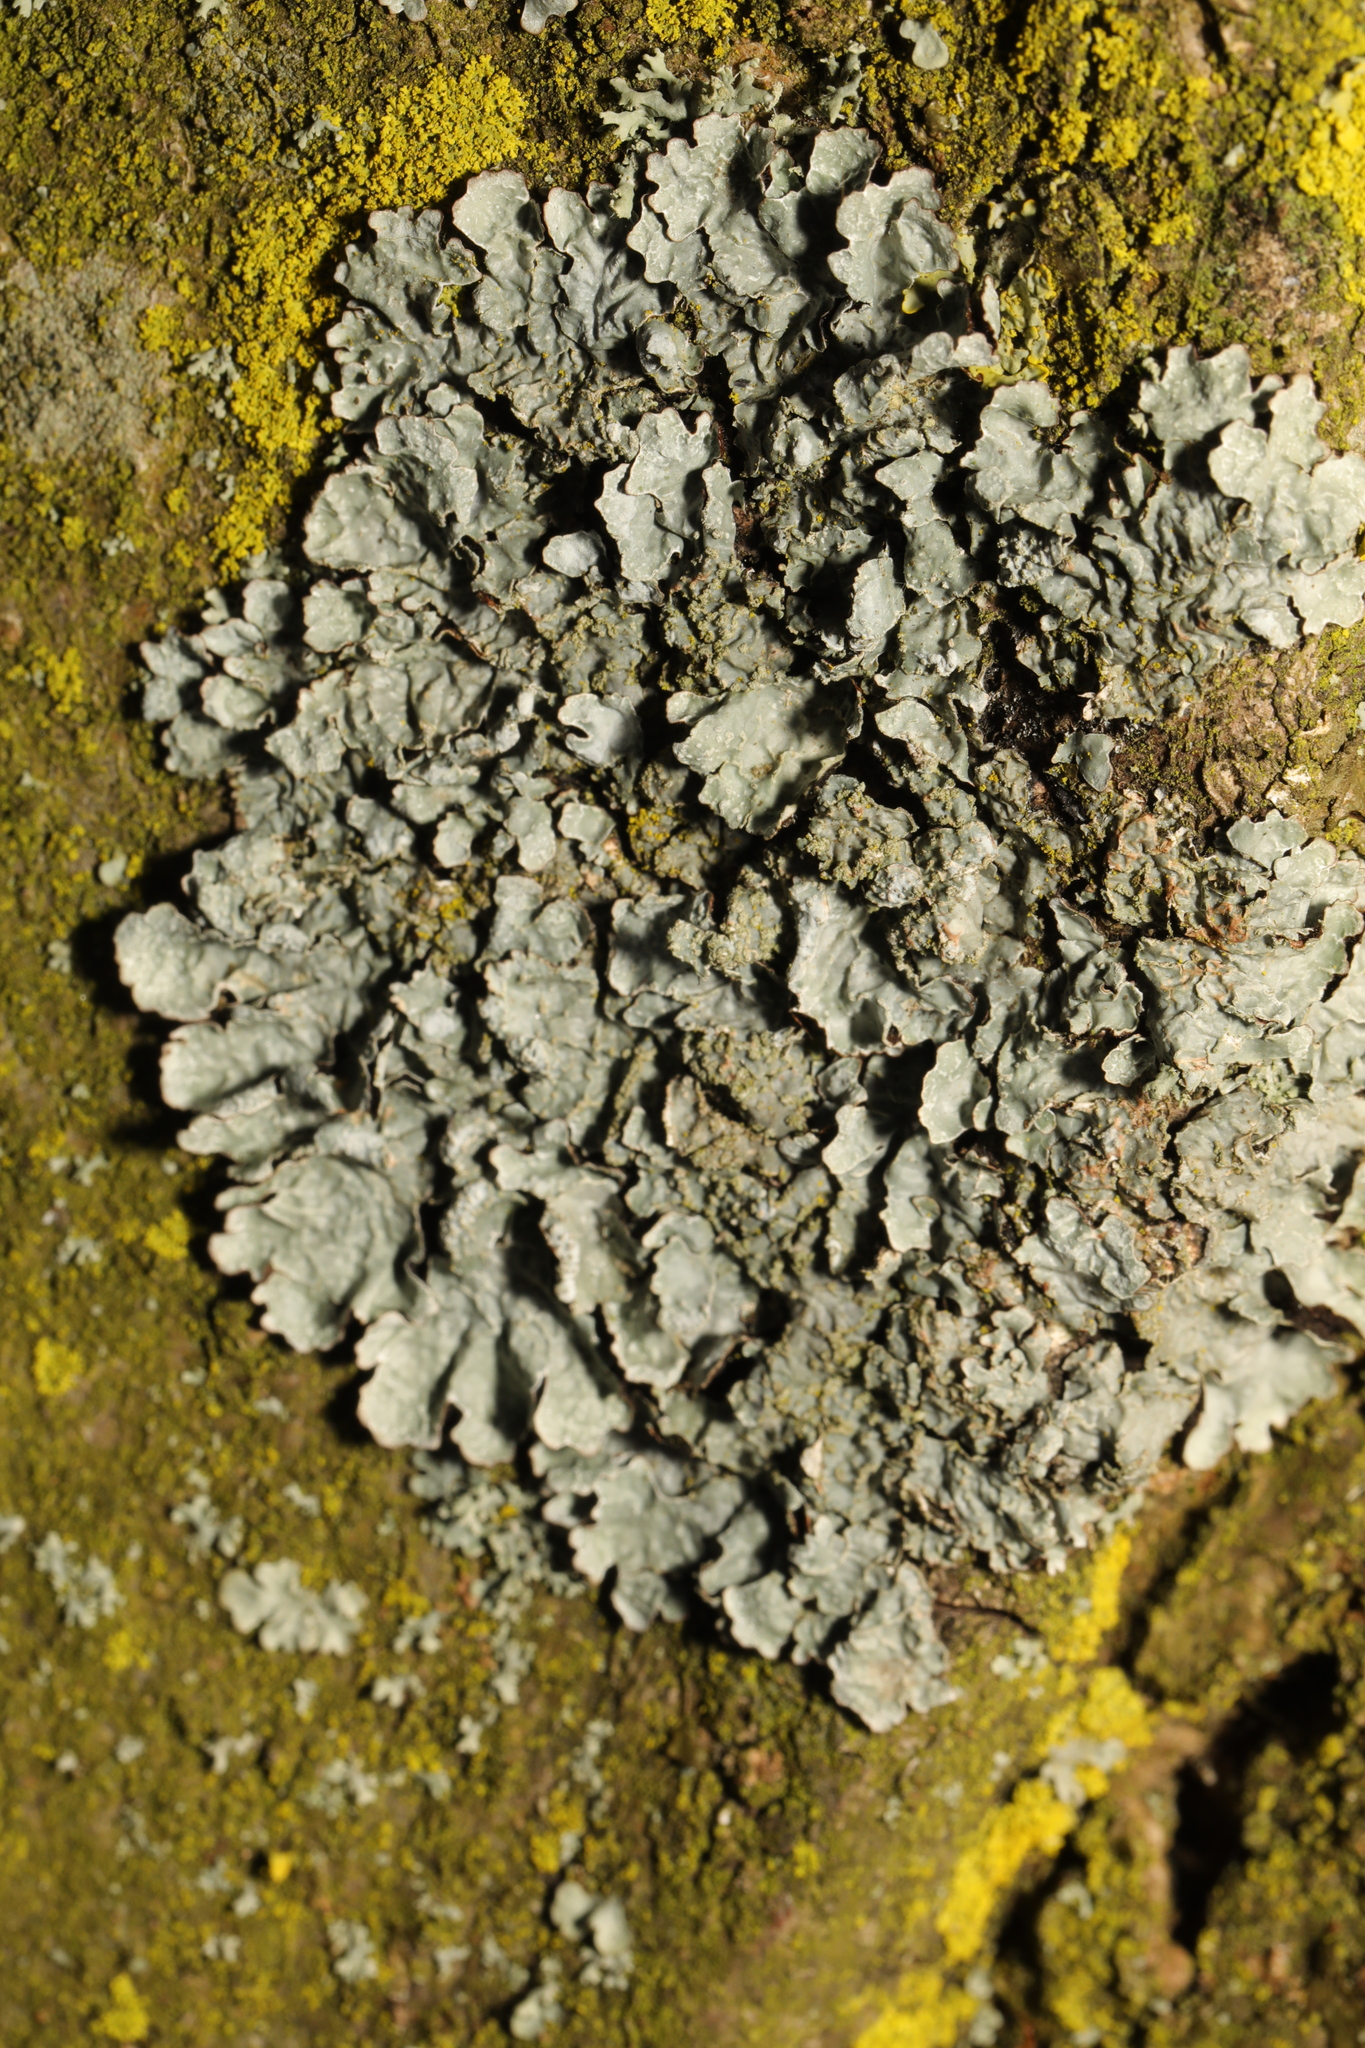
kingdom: Fungi
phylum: Ascomycota
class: Lecanoromycetes
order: Lecanorales
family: Parmeliaceae
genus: Parmelia
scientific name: Parmelia sulcata
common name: Netted shield lichen
